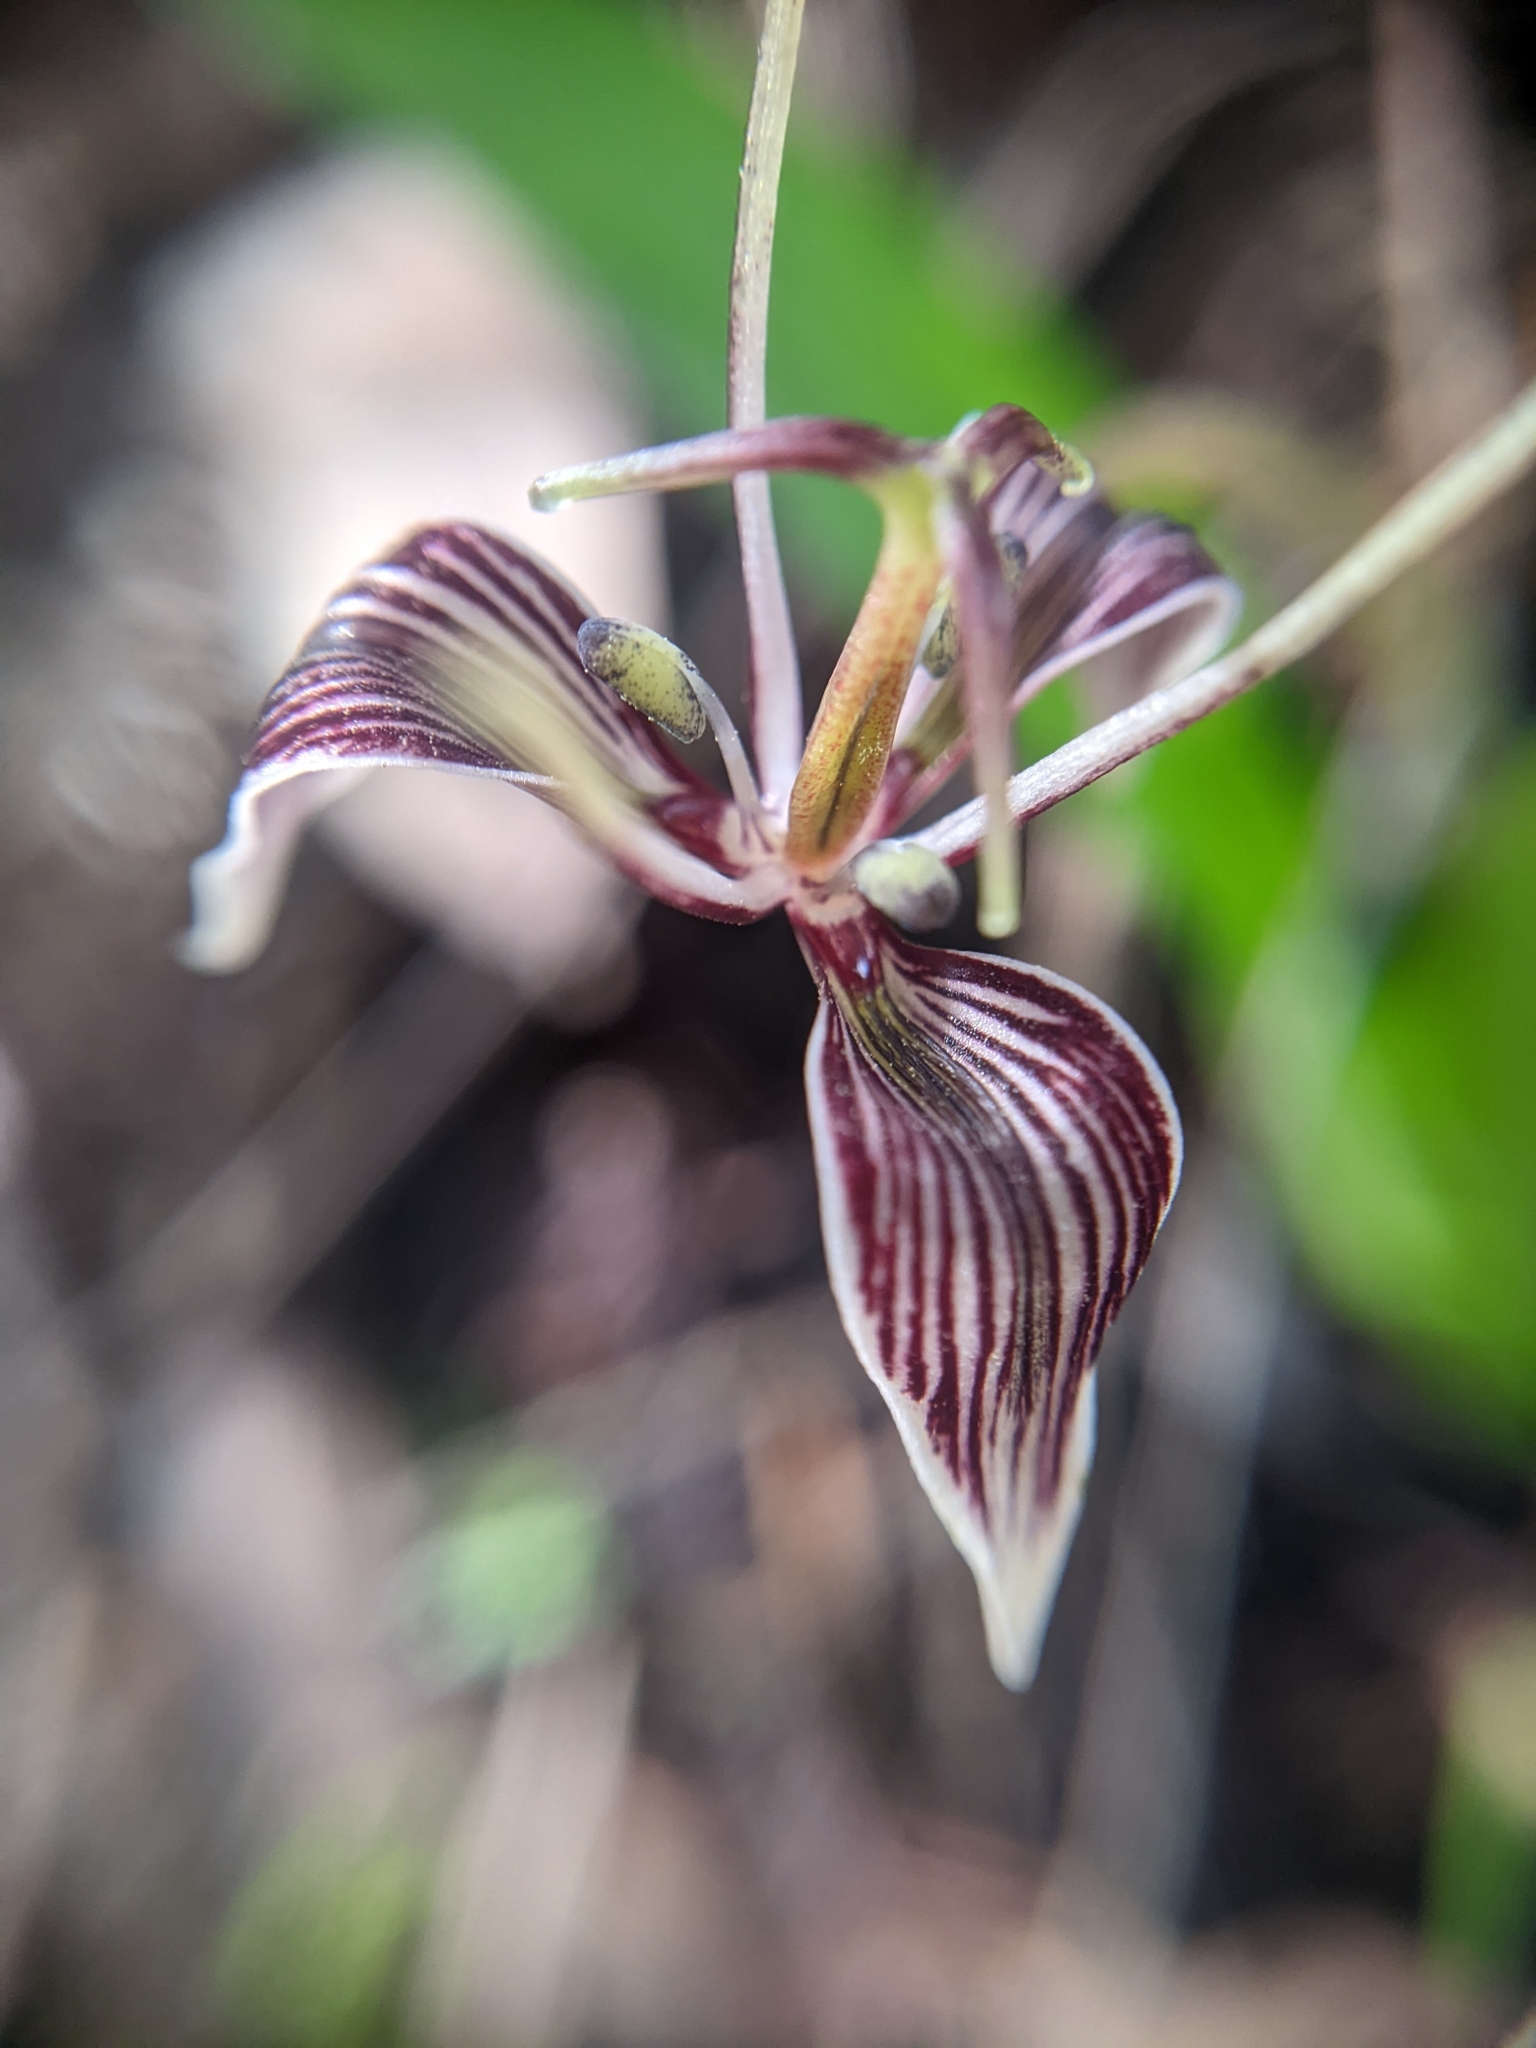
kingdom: Plantae
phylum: Tracheophyta
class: Liliopsida
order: Liliales
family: Liliaceae
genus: Scoliopus
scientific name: Scoliopus bigelovii
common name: Foetid adder's-tongue
